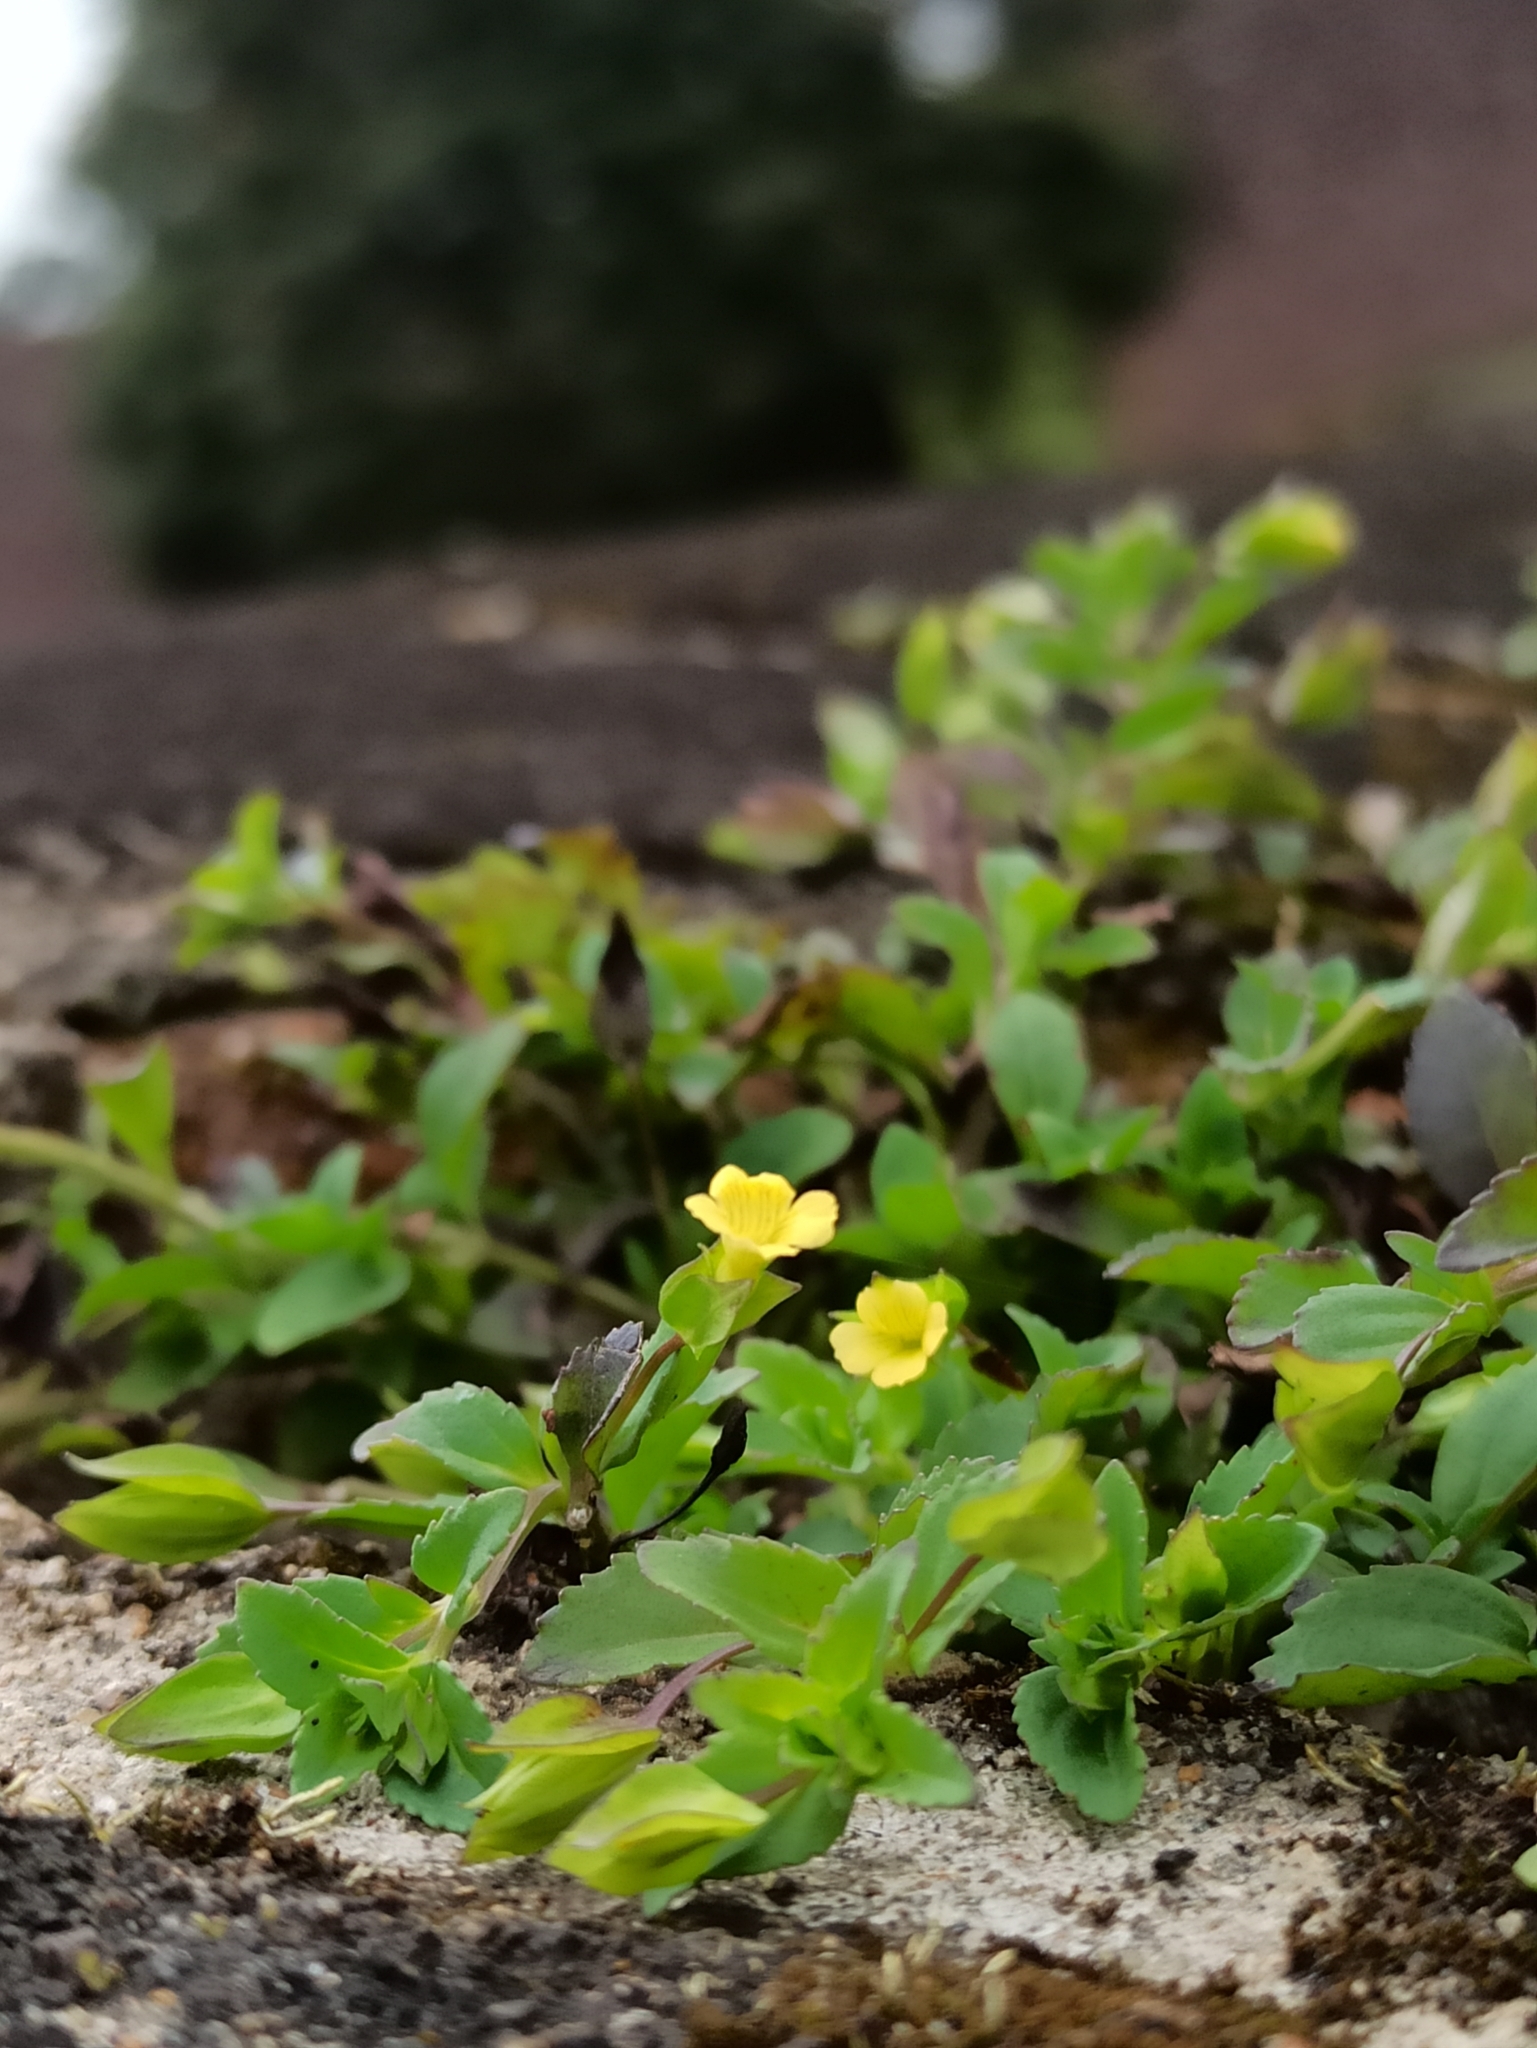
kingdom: Plantae
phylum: Tracheophyta
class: Magnoliopsida
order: Lamiales
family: Plantaginaceae
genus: Mecardonia
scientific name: Mecardonia procumbens
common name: Baby jump-up
